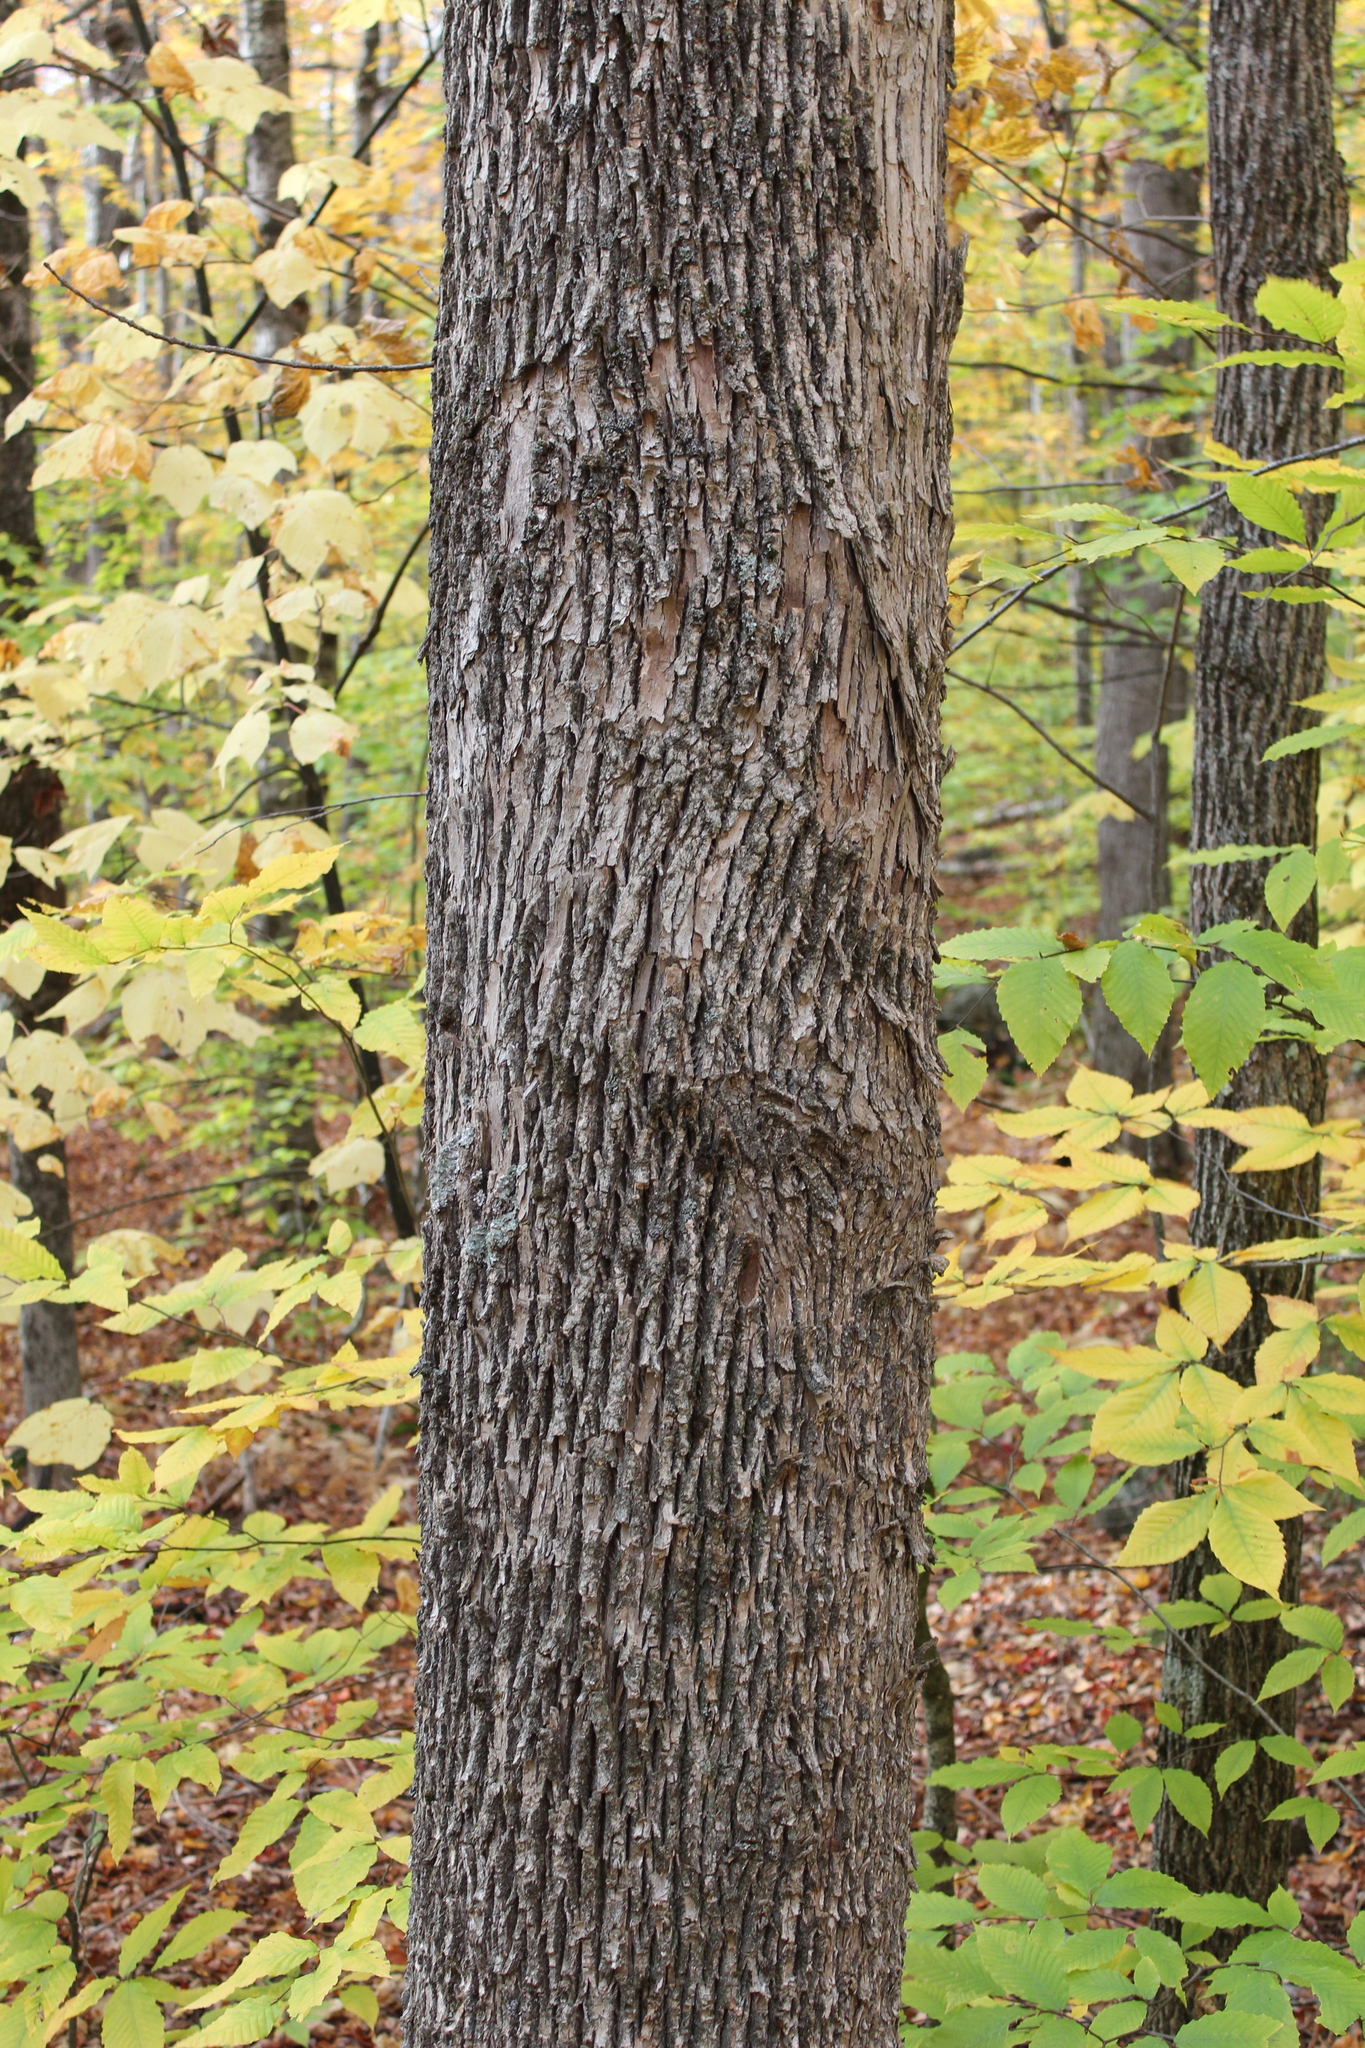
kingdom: Plantae
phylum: Tracheophyta
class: Magnoliopsida
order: Lamiales
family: Oleaceae
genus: Fraxinus
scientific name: Fraxinus americana
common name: White ash
